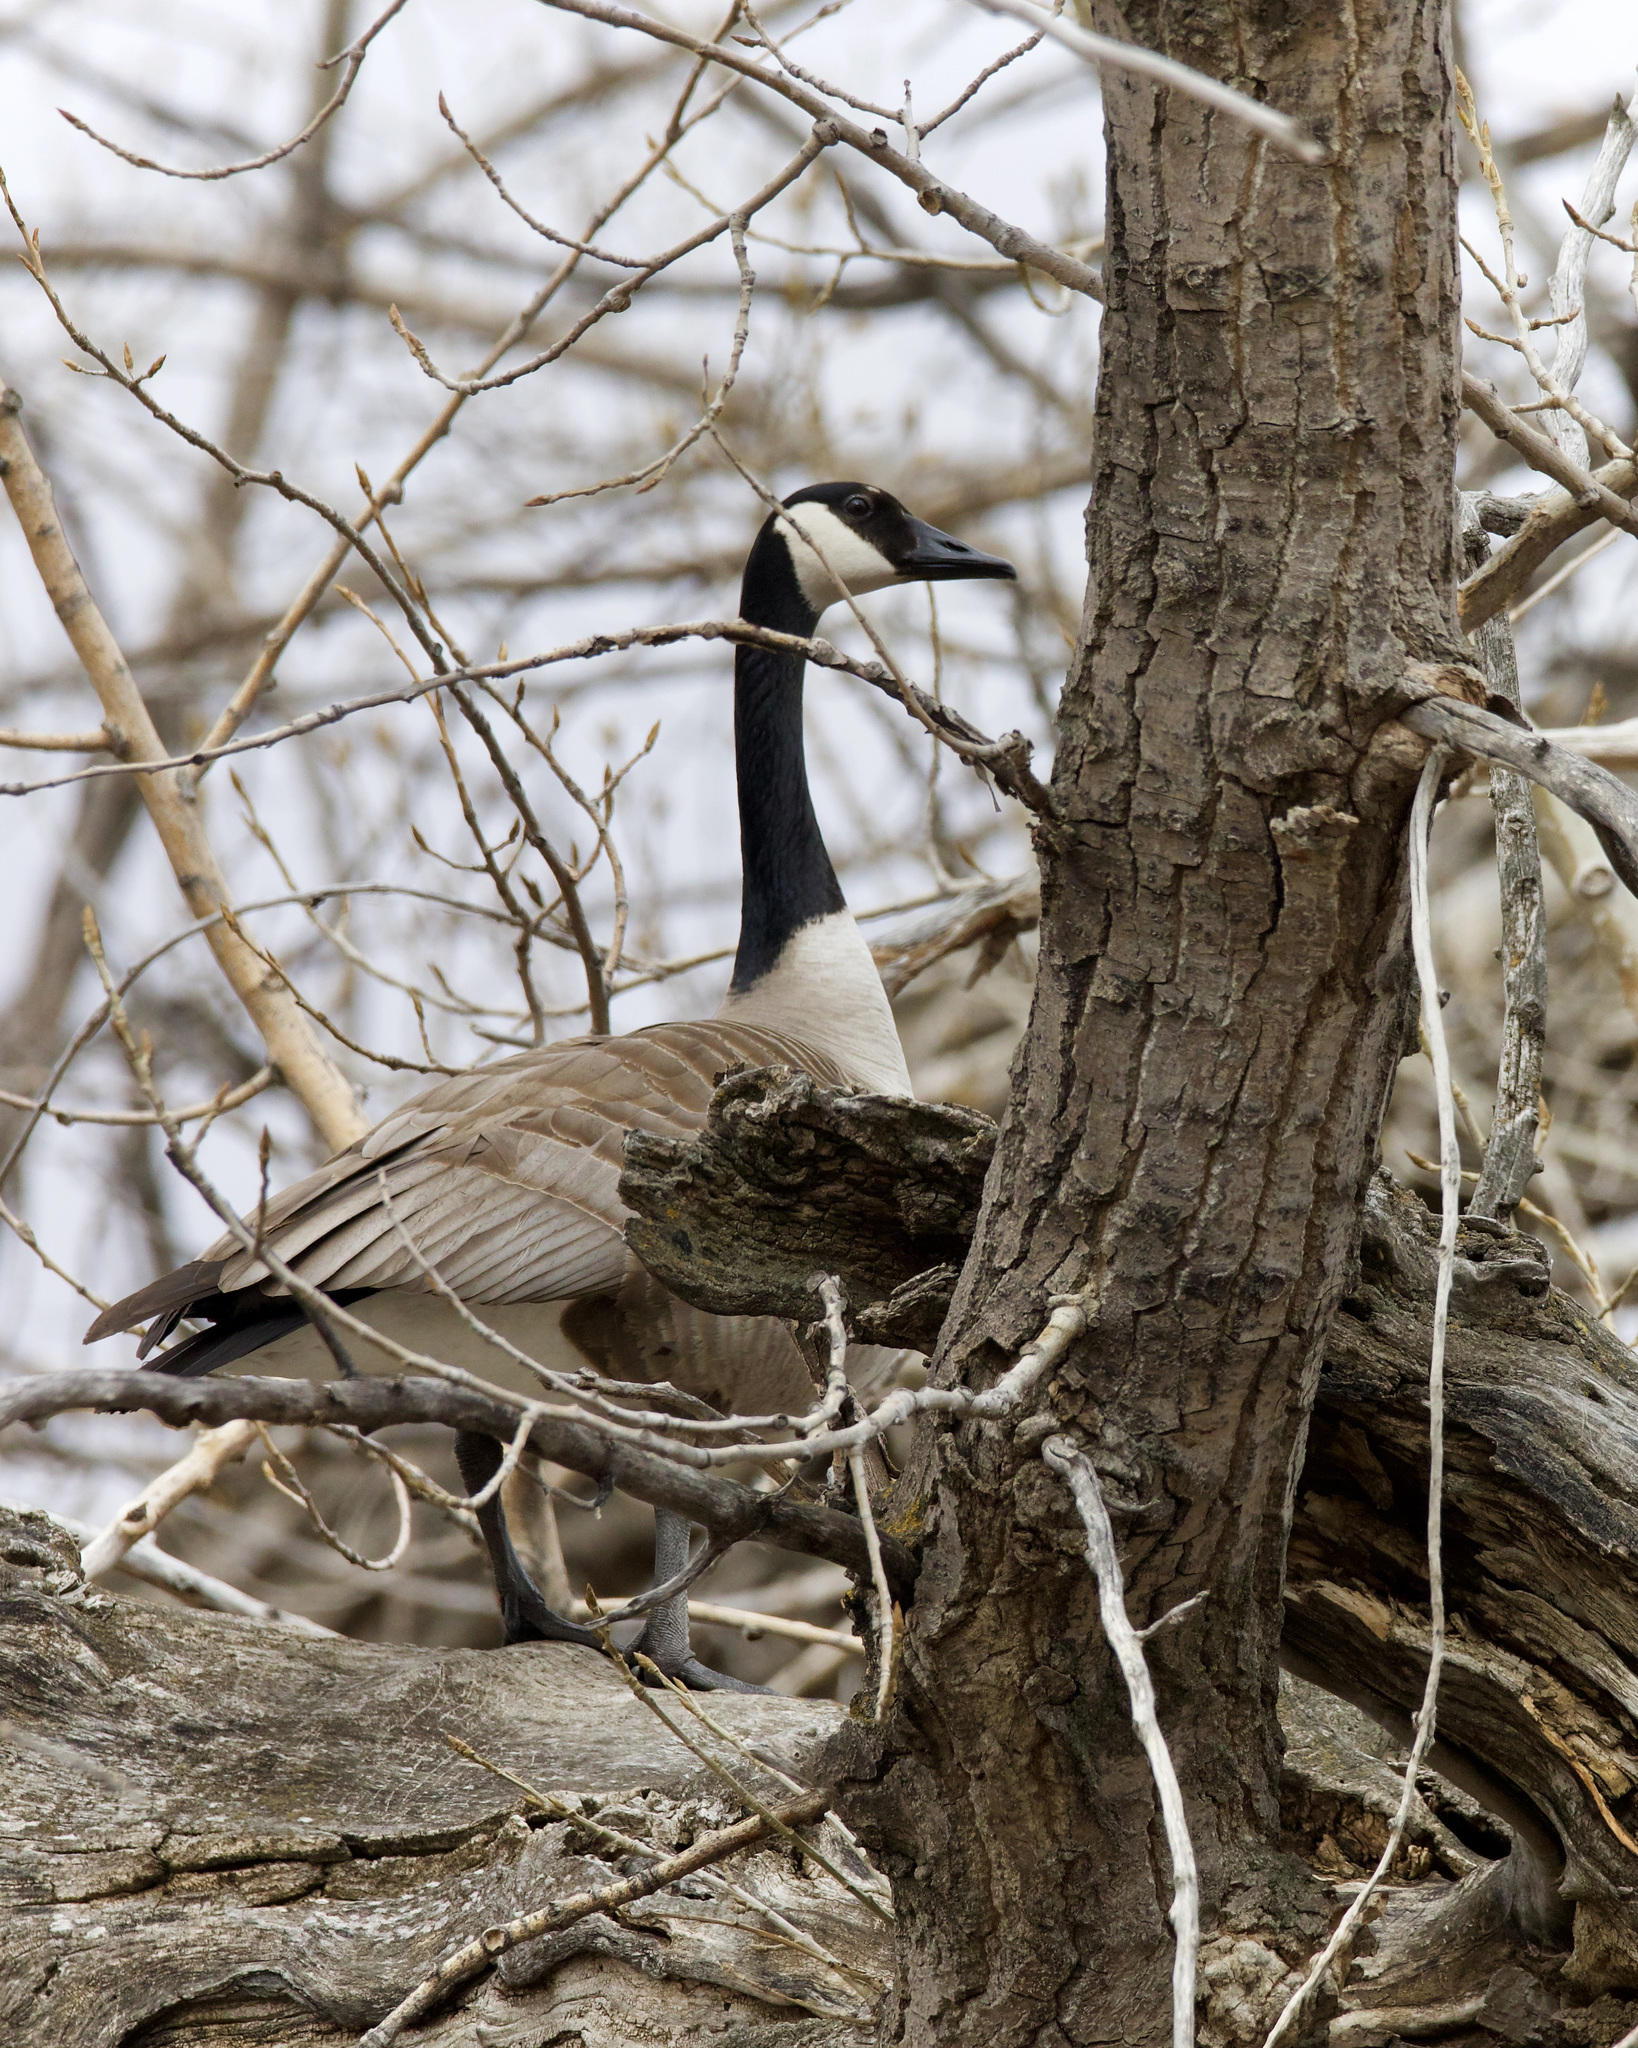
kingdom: Animalia
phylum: Chordata
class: Aves
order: Anseriformes
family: Anatidae
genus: Branta
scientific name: Branta canadensis
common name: Canada goose
